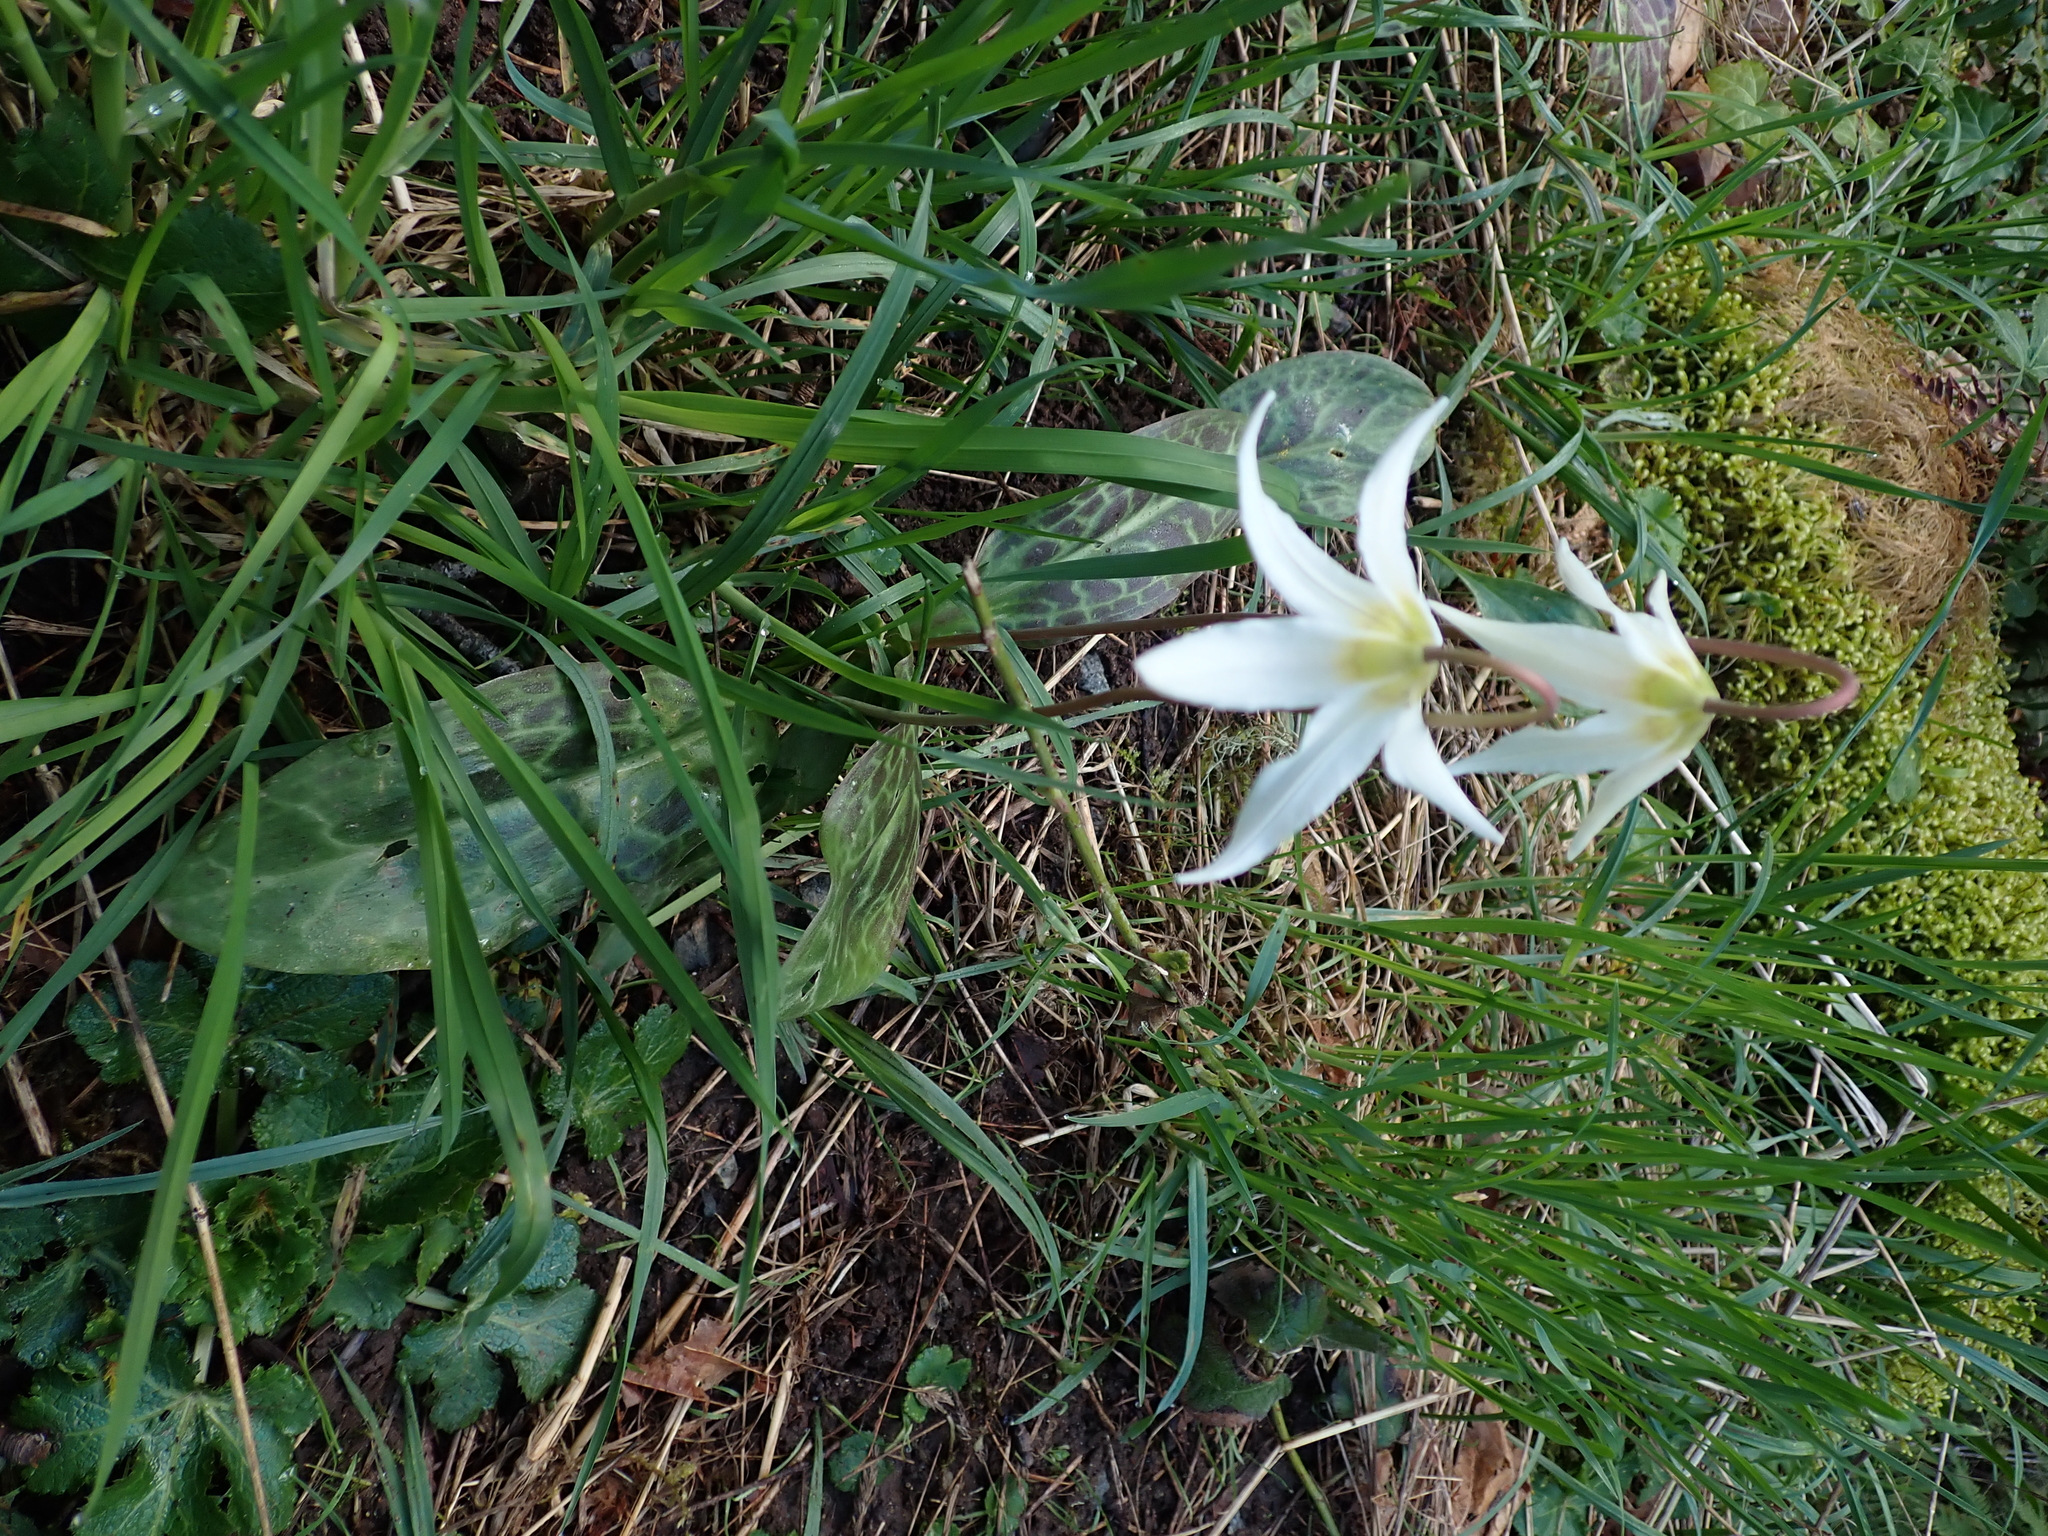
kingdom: Plantae
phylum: Tracheophyta
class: Liliopsida
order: Liliales
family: Liliaceae
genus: Erythronium
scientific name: Erythronium oregonum
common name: Giant adder's-tongue
